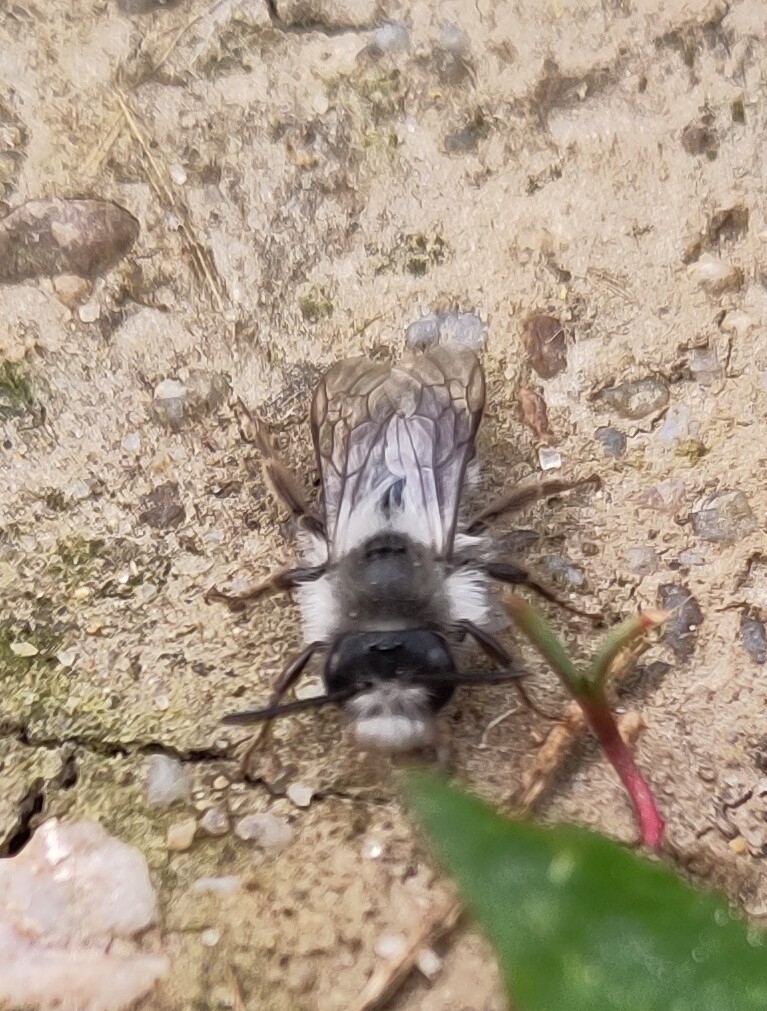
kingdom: Animalia
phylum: Arthropoda
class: Insecta
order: Hymenoptera
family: Andrenidae
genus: Andrena
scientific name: Andrena cineraria
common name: Ashy mining bee
